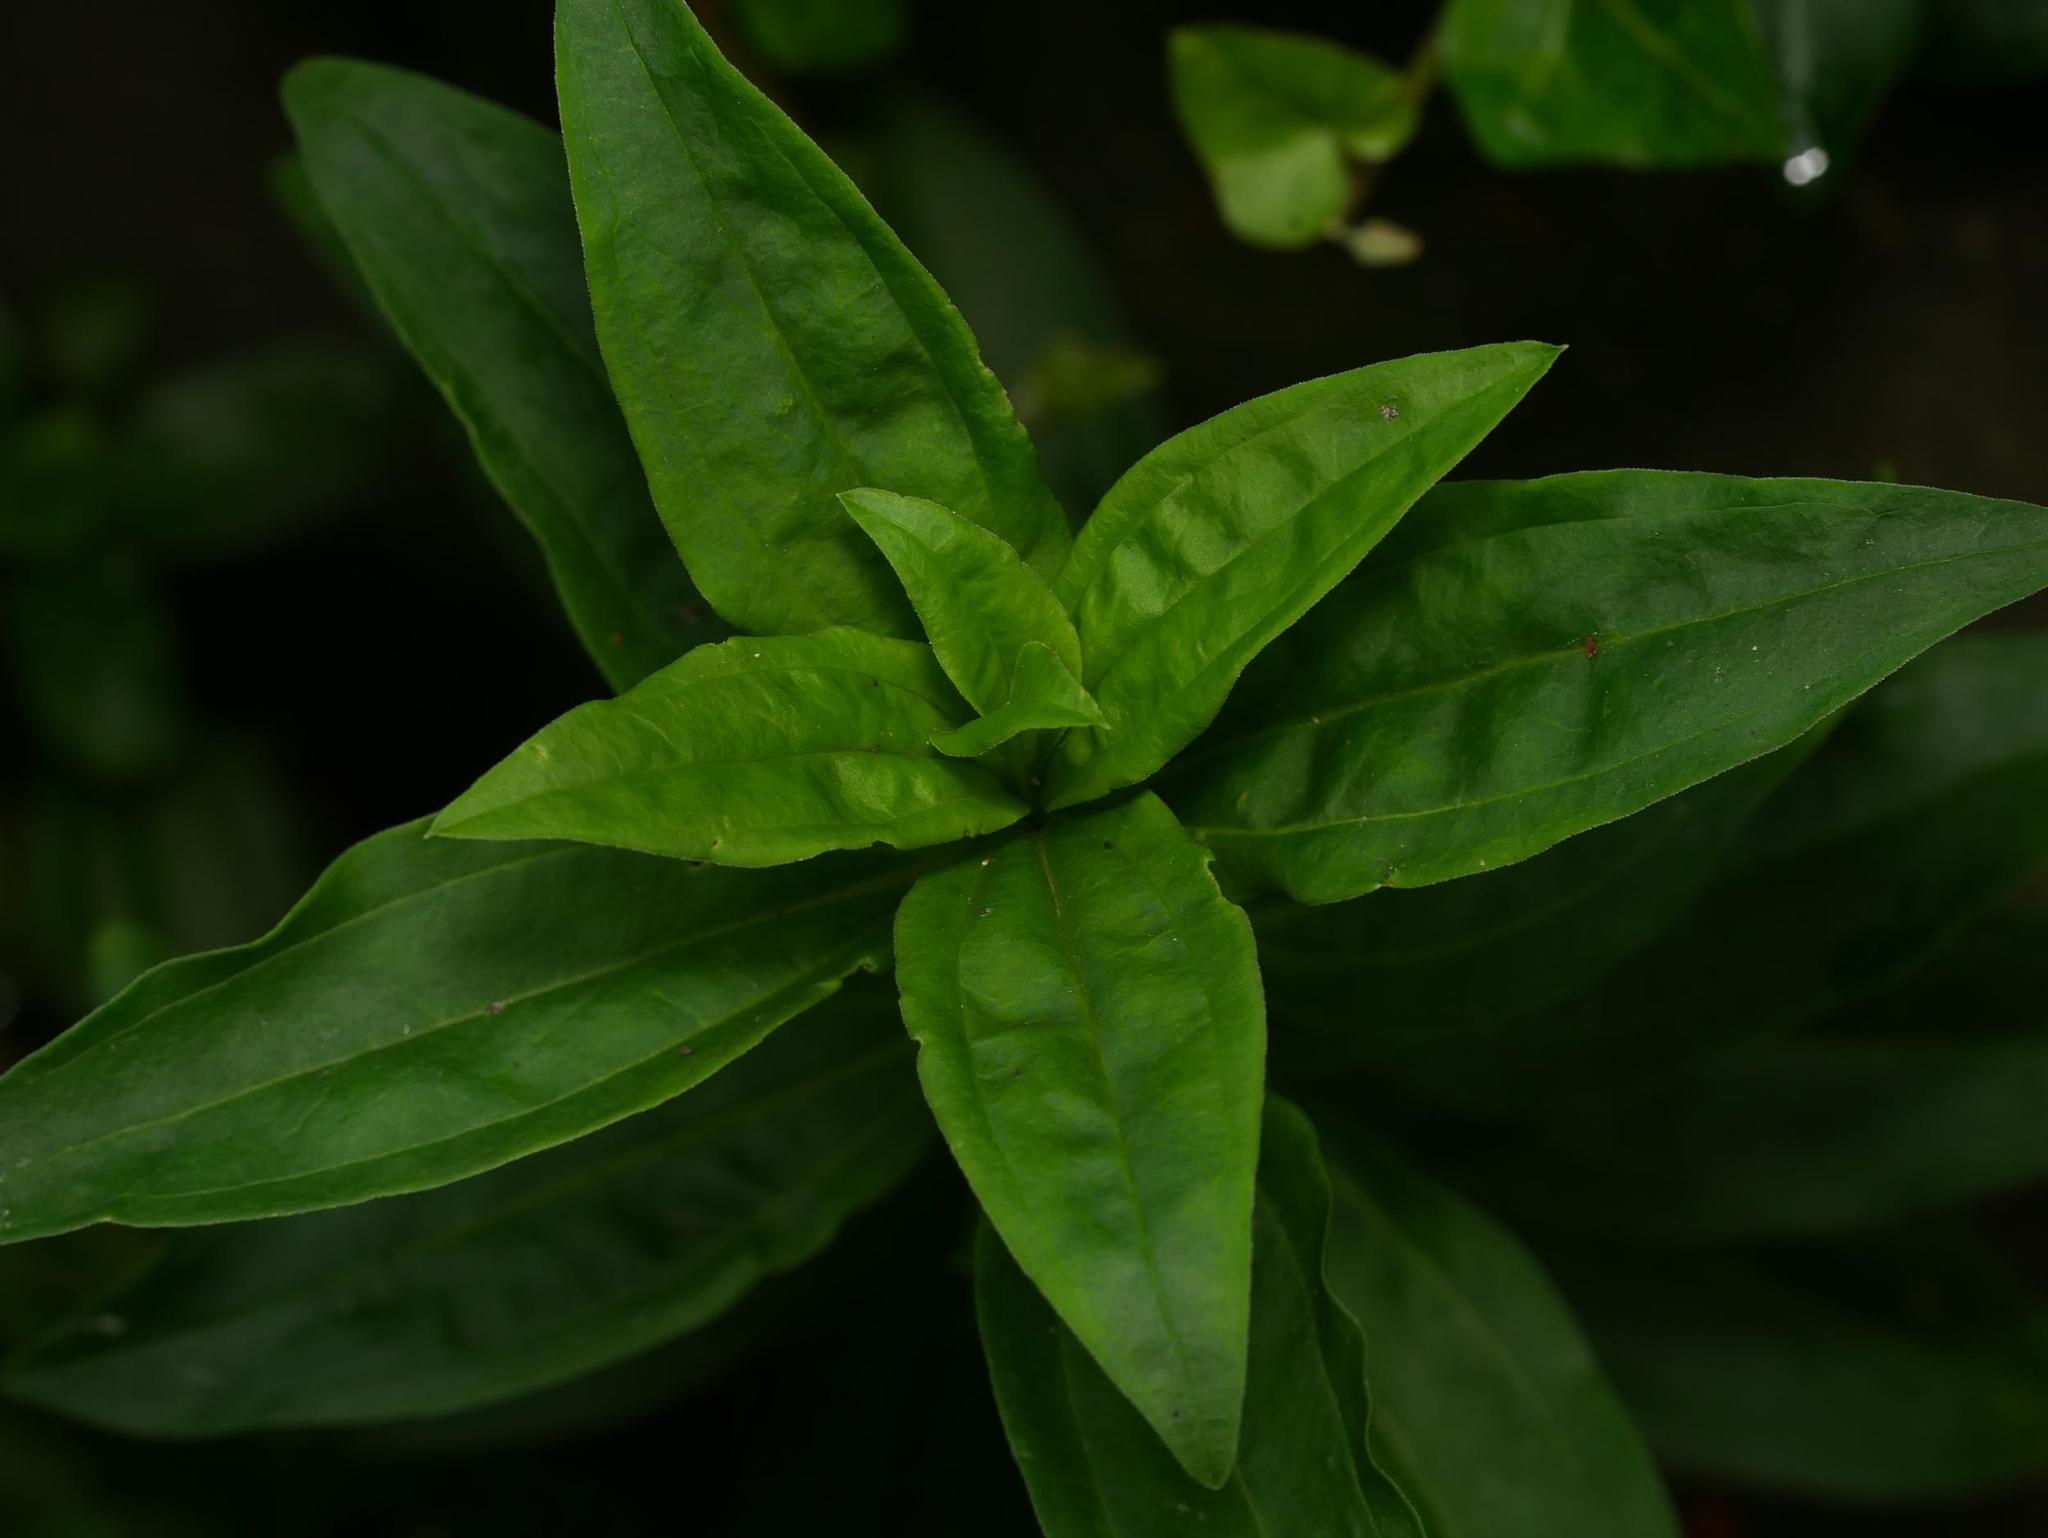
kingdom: Plantae
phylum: Tracheophyta
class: Magnoliopsida
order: Caryophyllales
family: Caryophyllaceae
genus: Saponaria
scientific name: Saponaria officinalis
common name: Soapwort
